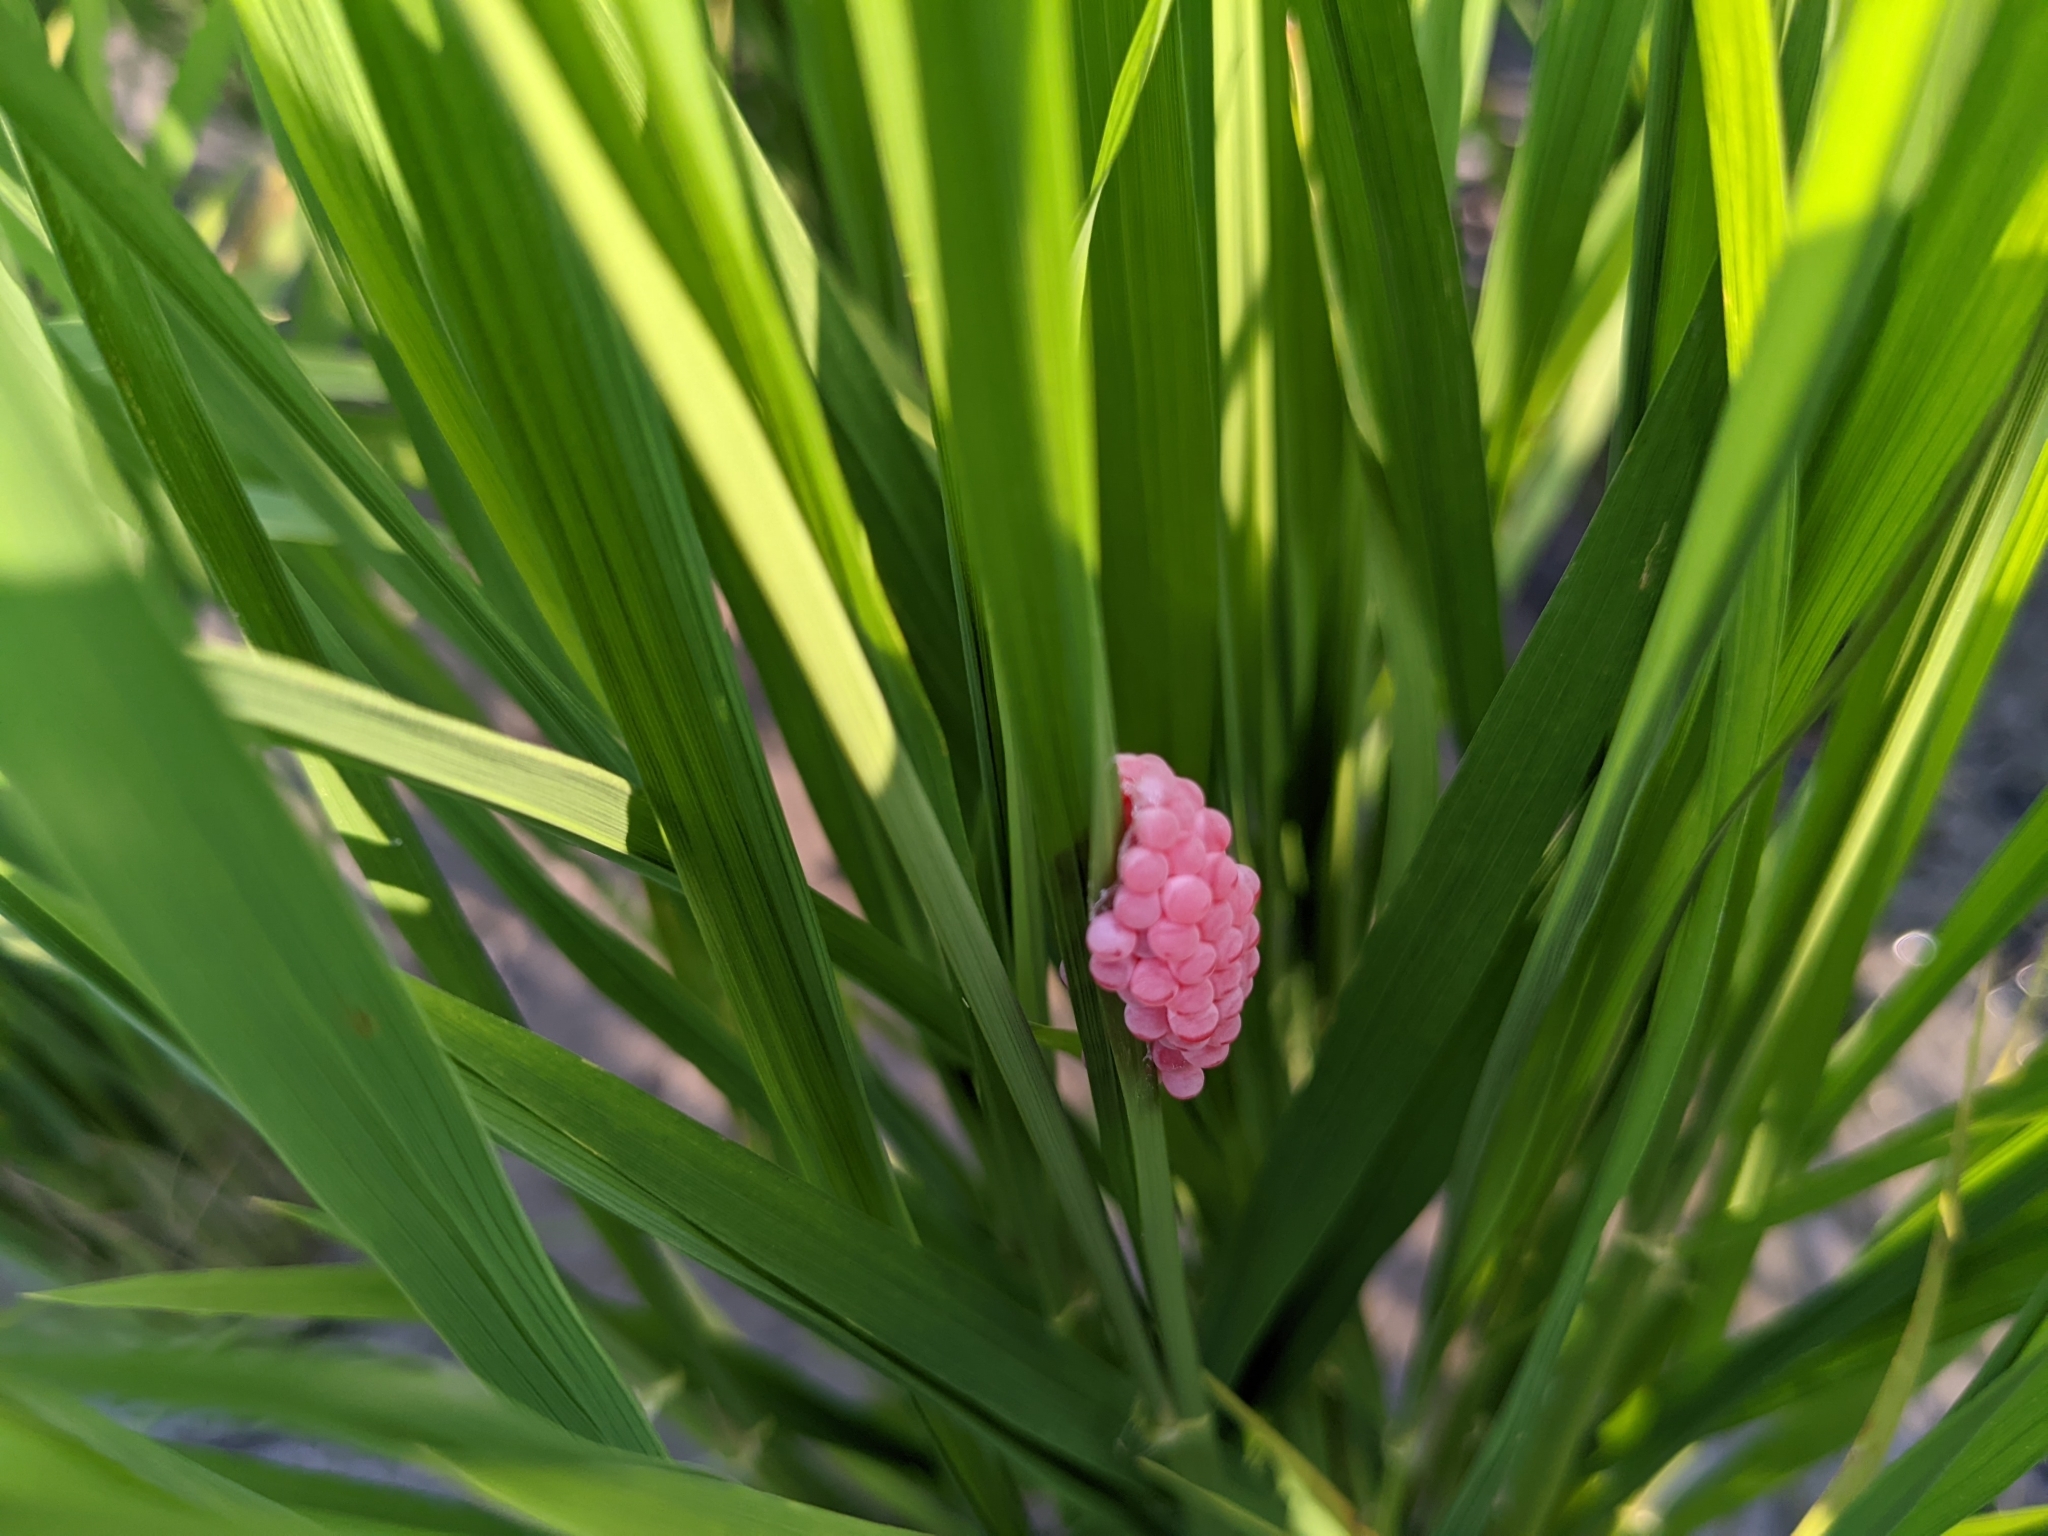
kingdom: Animalia
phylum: Mollusca
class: Gastropoda
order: Architaenioglossa
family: Ampullariidae
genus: Pomacea
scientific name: Pomacea canaliculata
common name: Channeled applesnail
